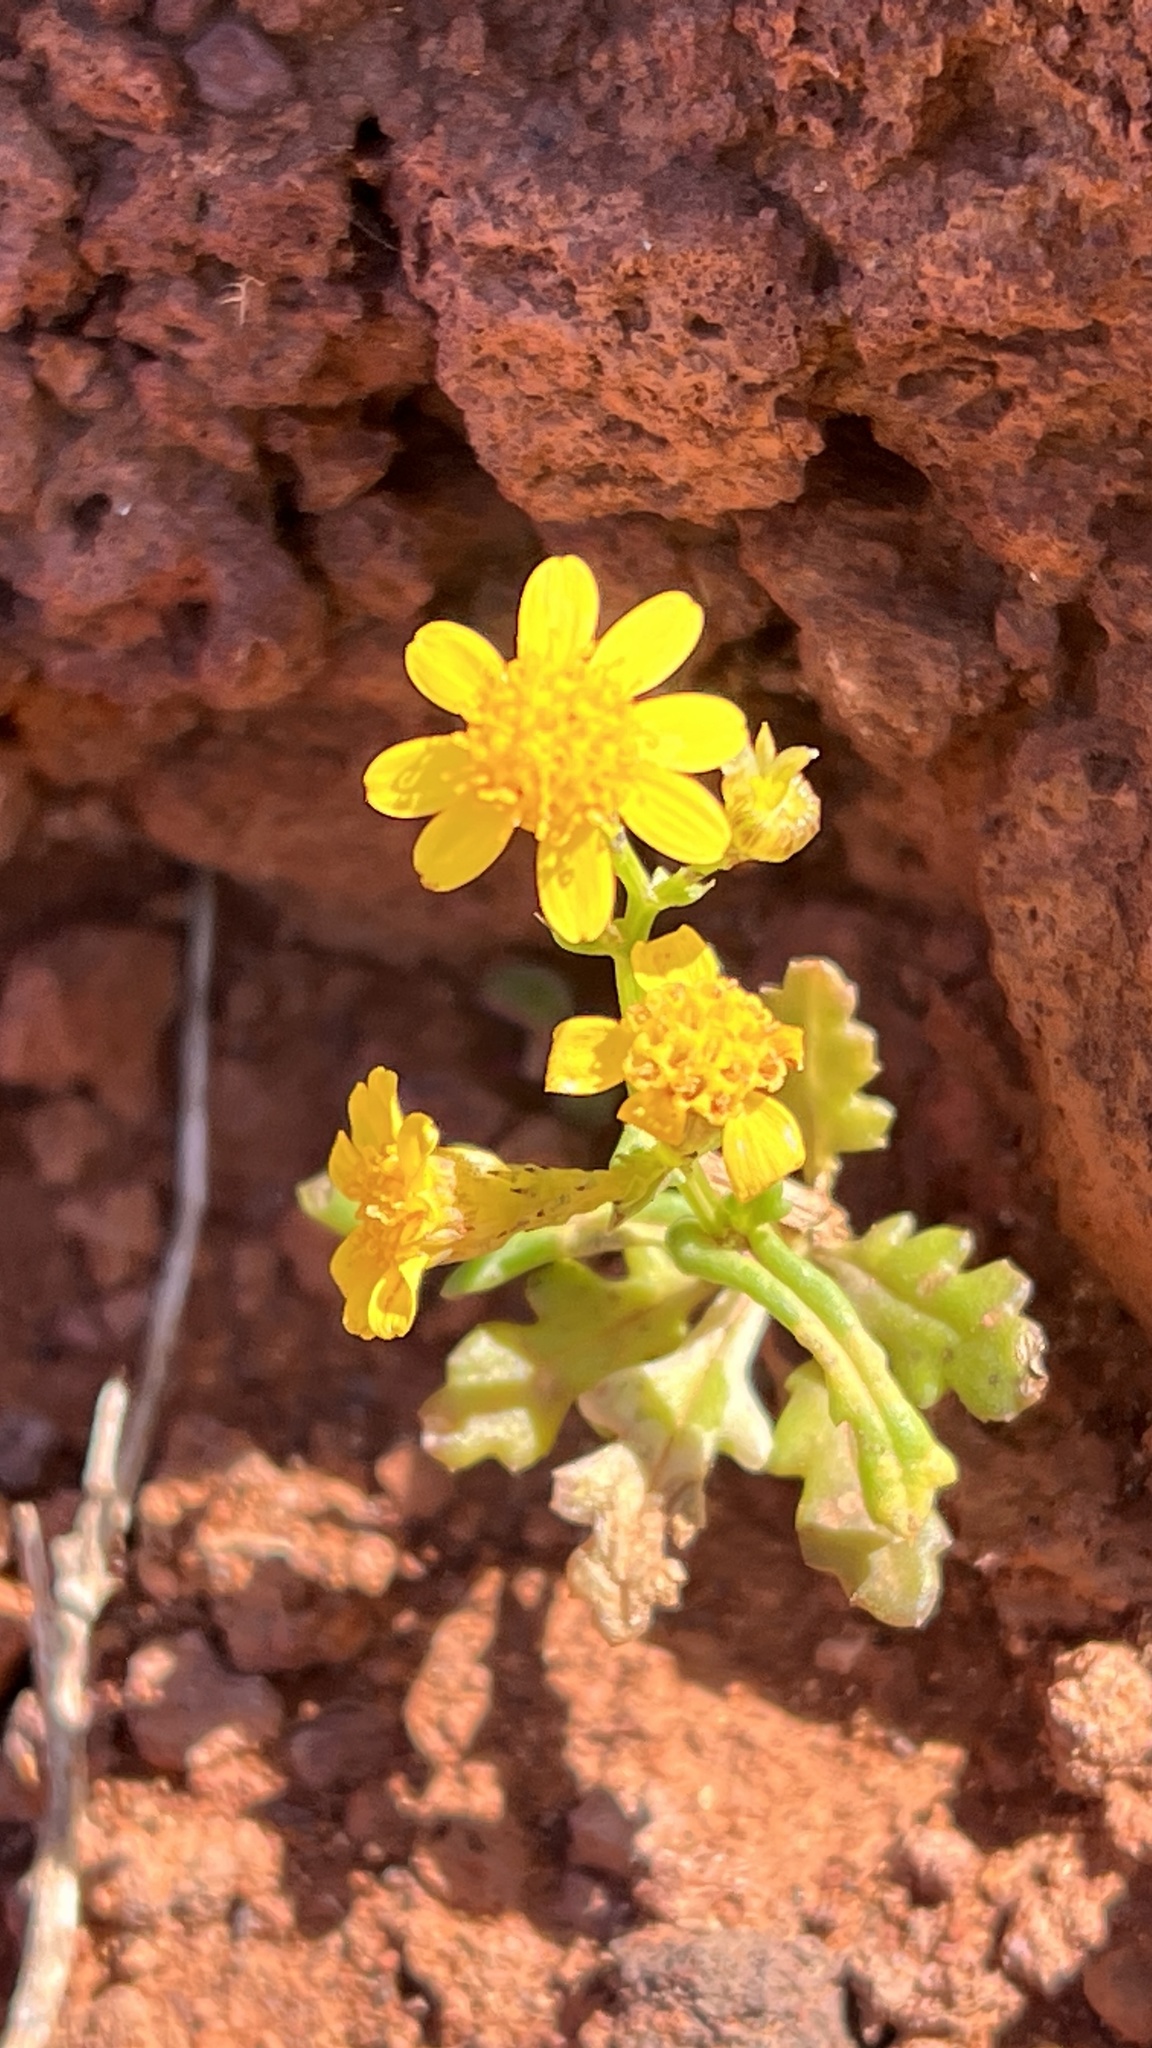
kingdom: Plantae
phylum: Tracheophyta
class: Magnoliopsida
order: Asterales
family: Asteraceae
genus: Senecio
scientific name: Senecio incrassatus
